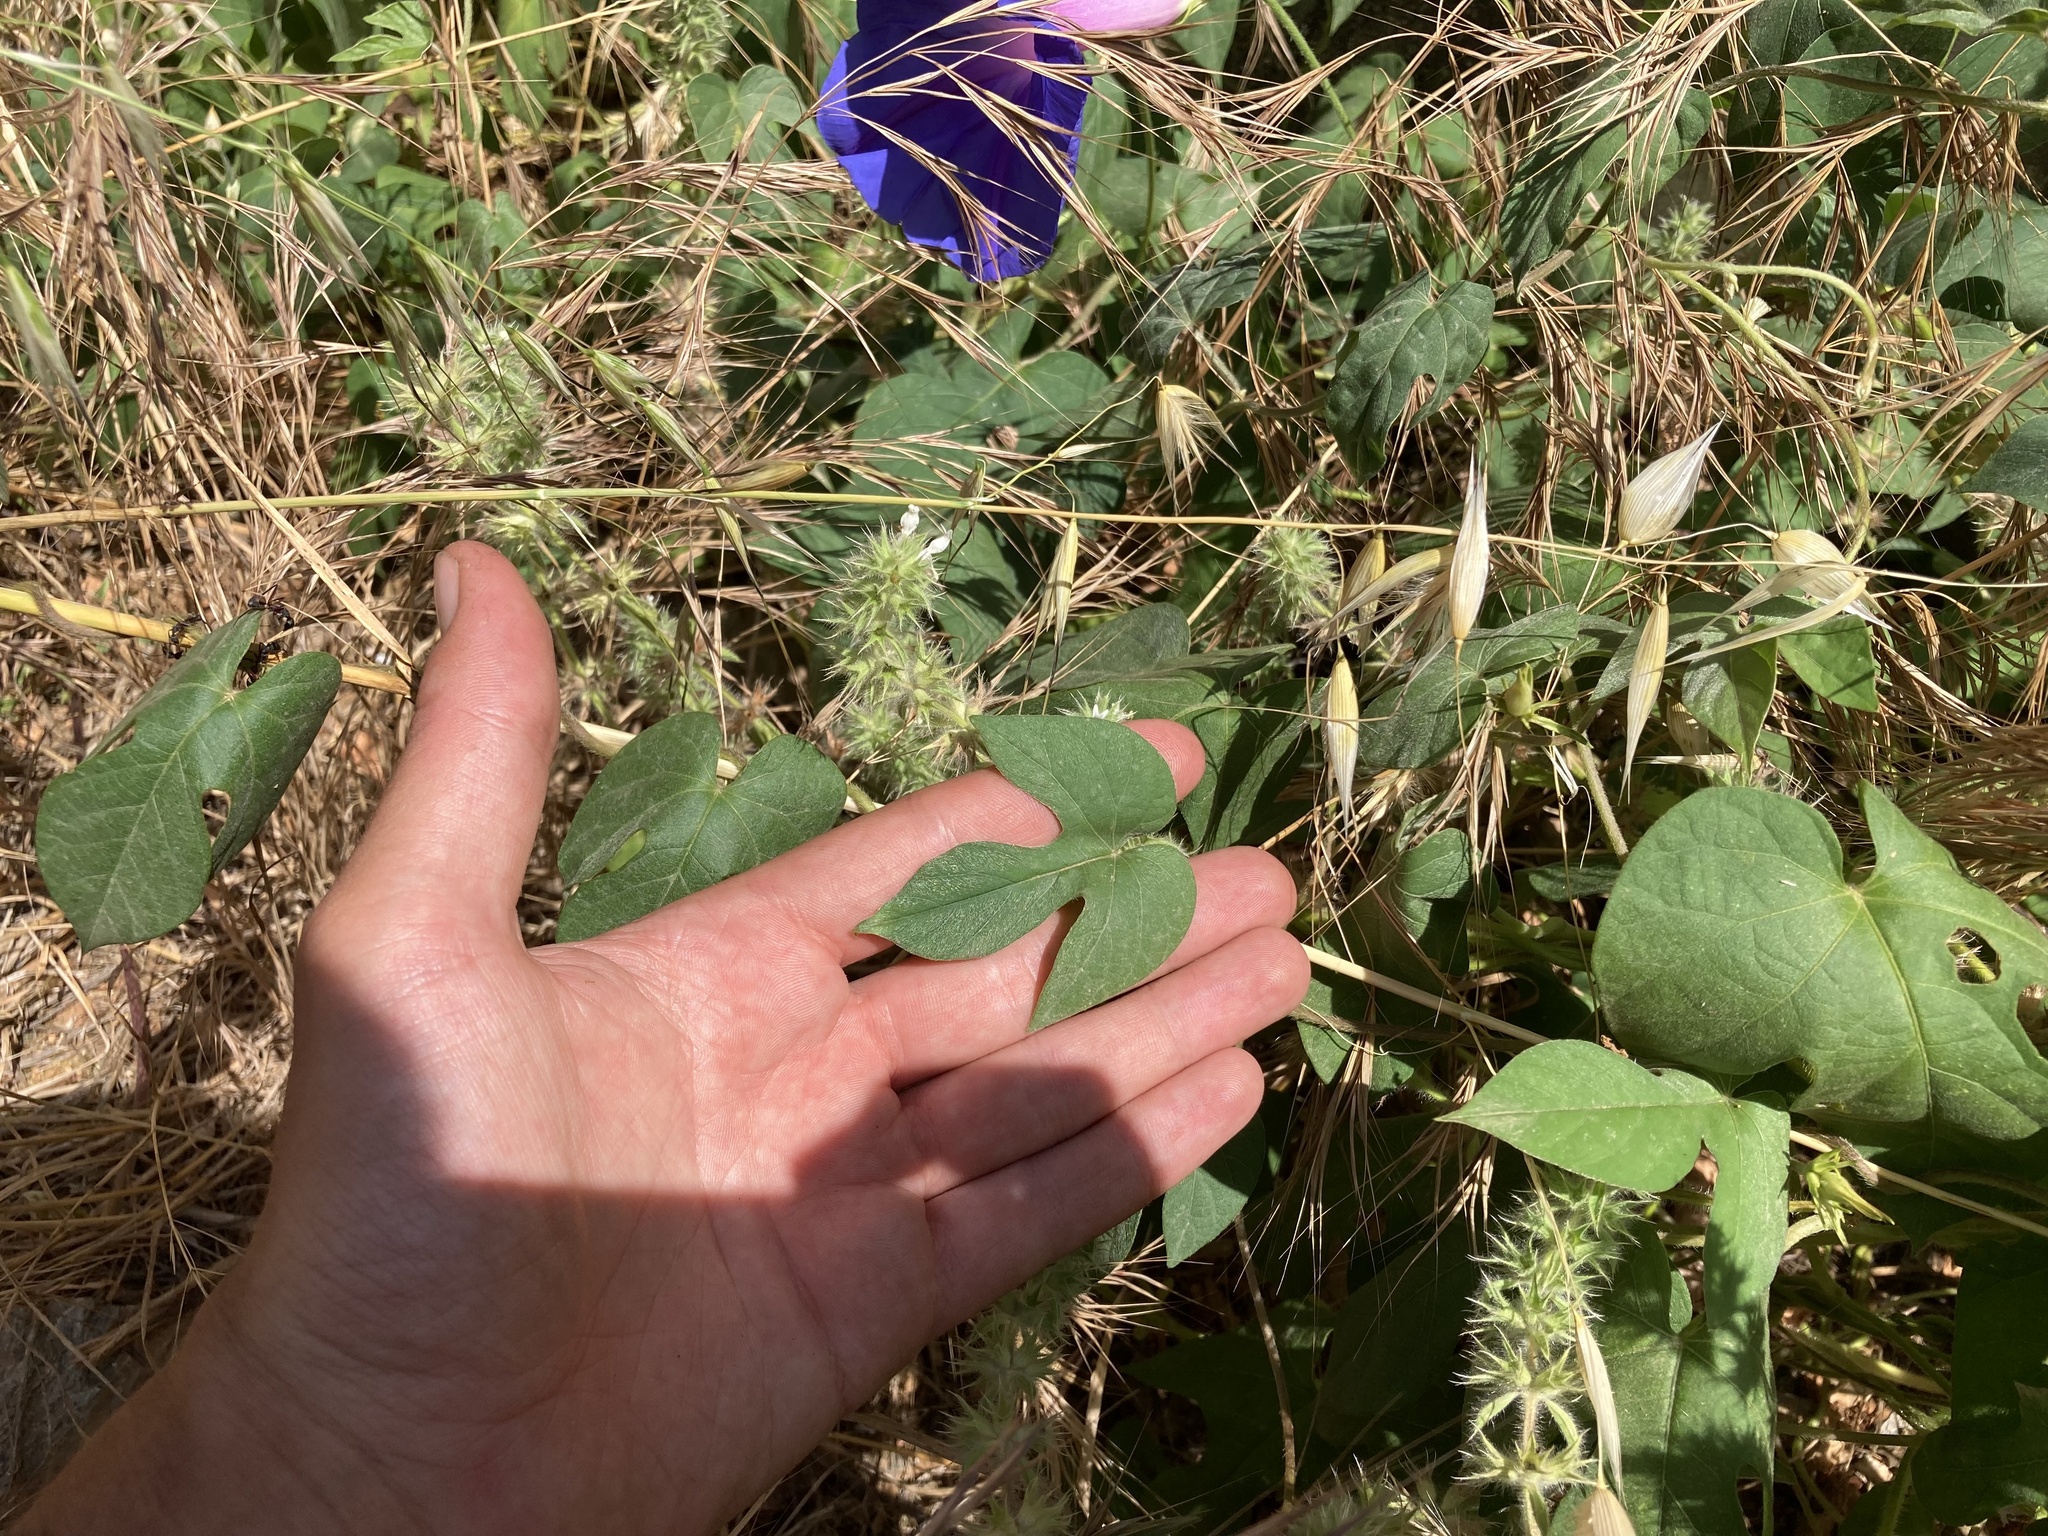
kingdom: Plantae
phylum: Tracheophyta
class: Magnoliopsida
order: Solanales
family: Convolvulaceae
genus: Ipomoea
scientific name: Ipomoea indica
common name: Blue dawnflower
